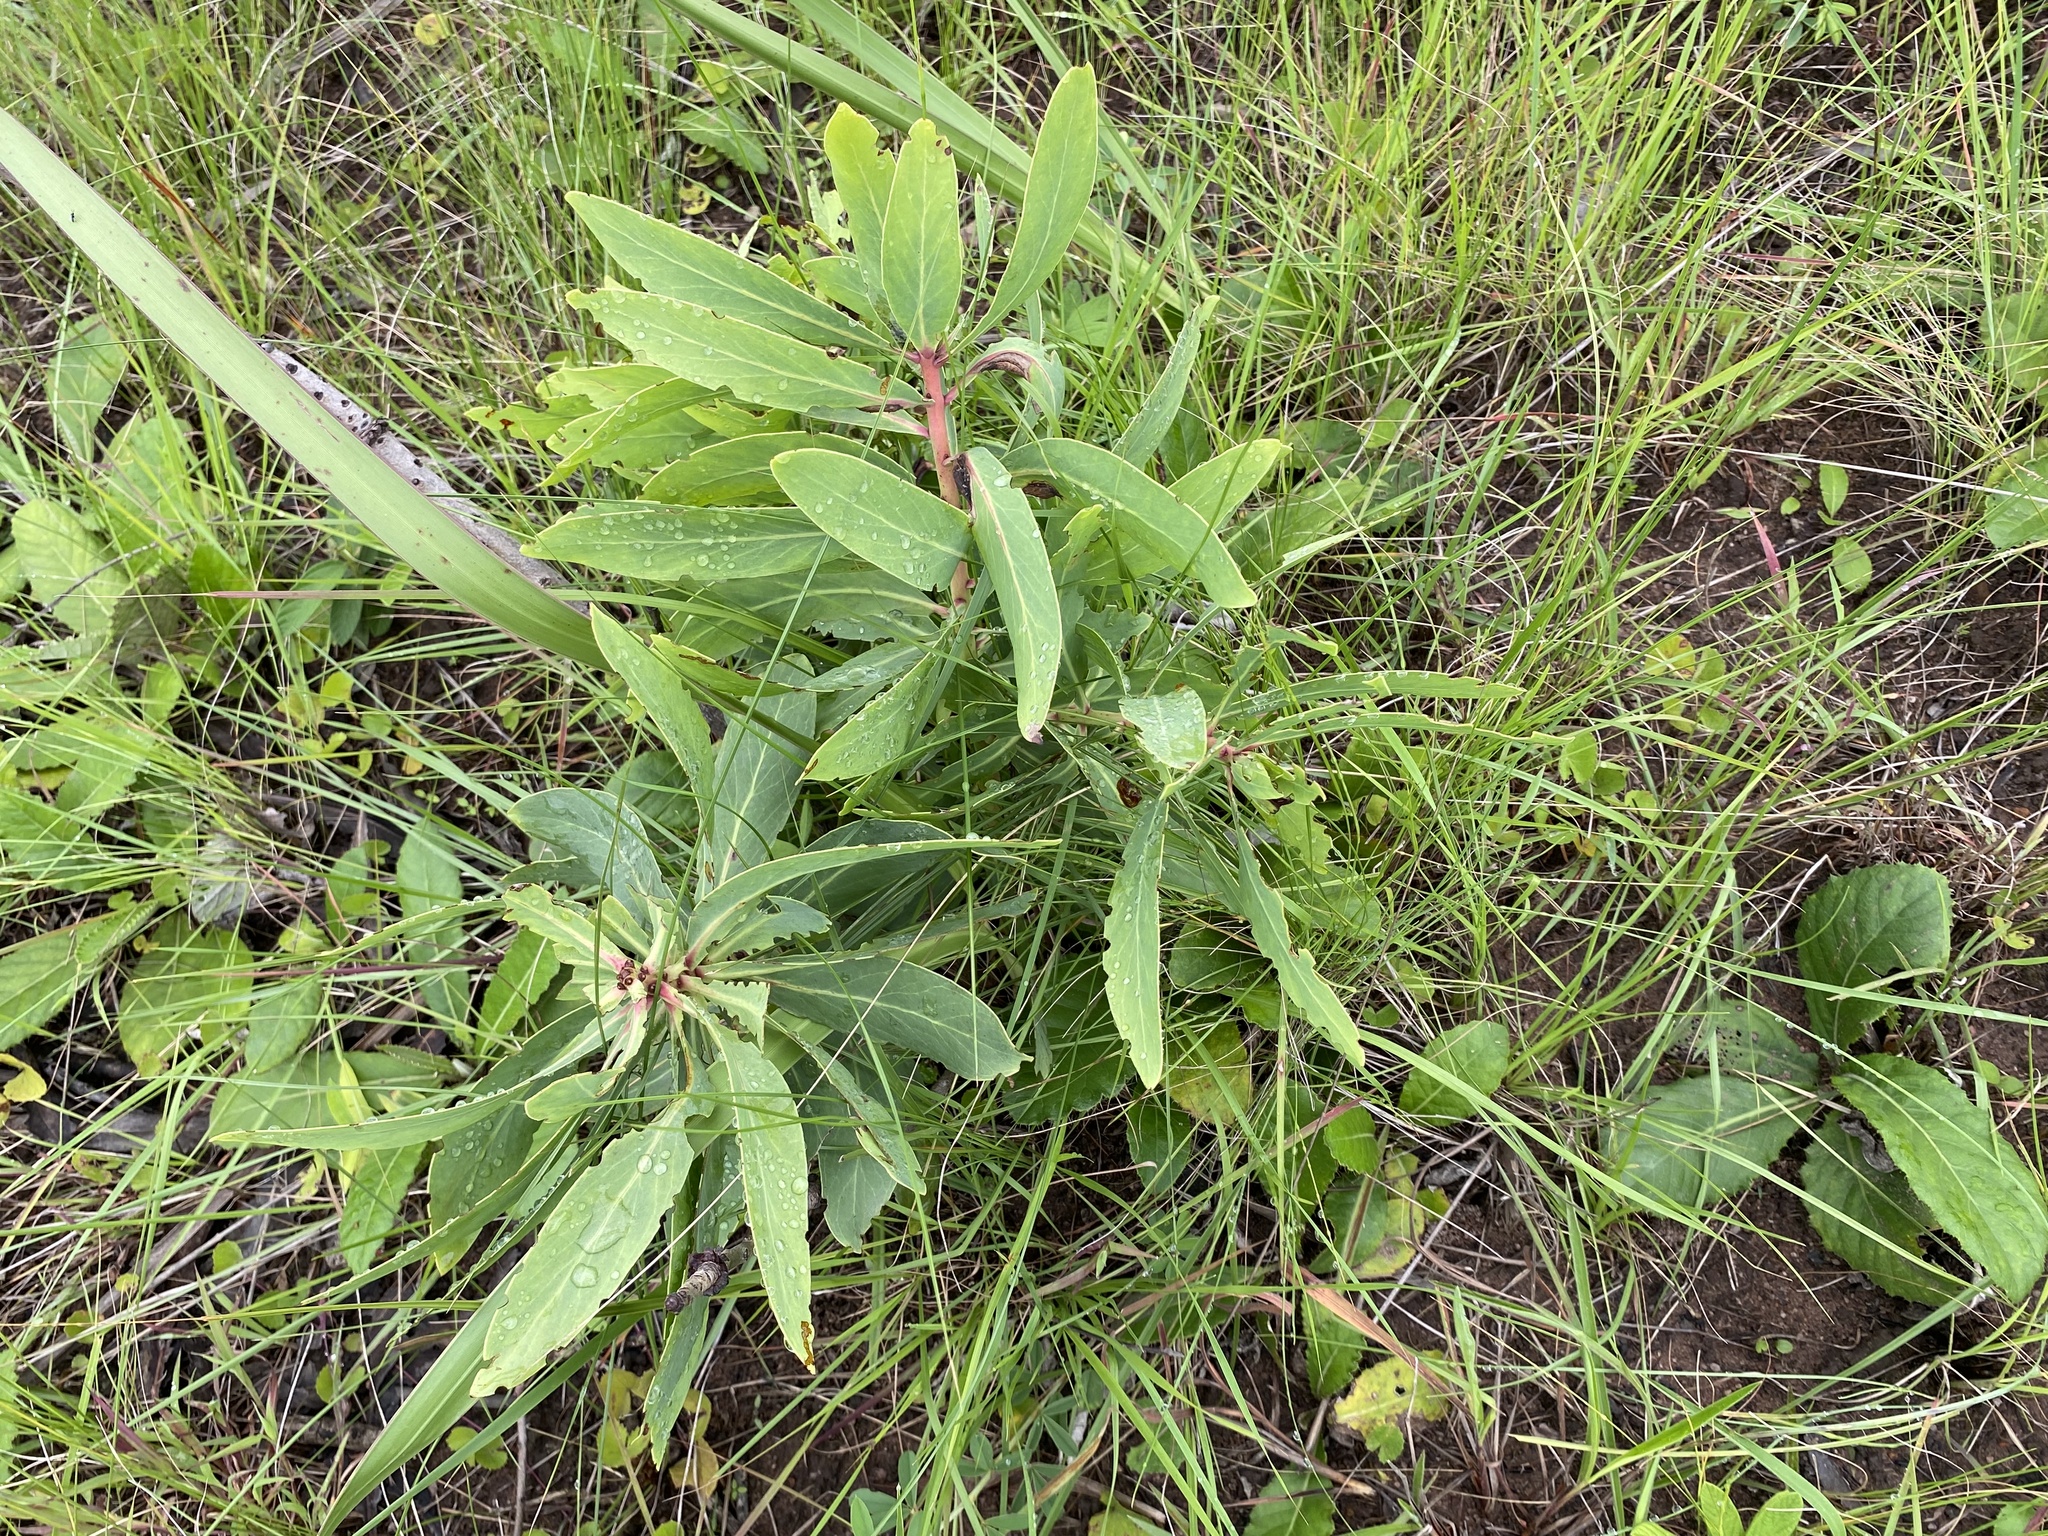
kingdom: Plantae
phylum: Tracheophyta
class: Magnoliopsida
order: Proteales
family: Proteaceae
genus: Protea
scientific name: Protea caffra
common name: Common sugarbush
